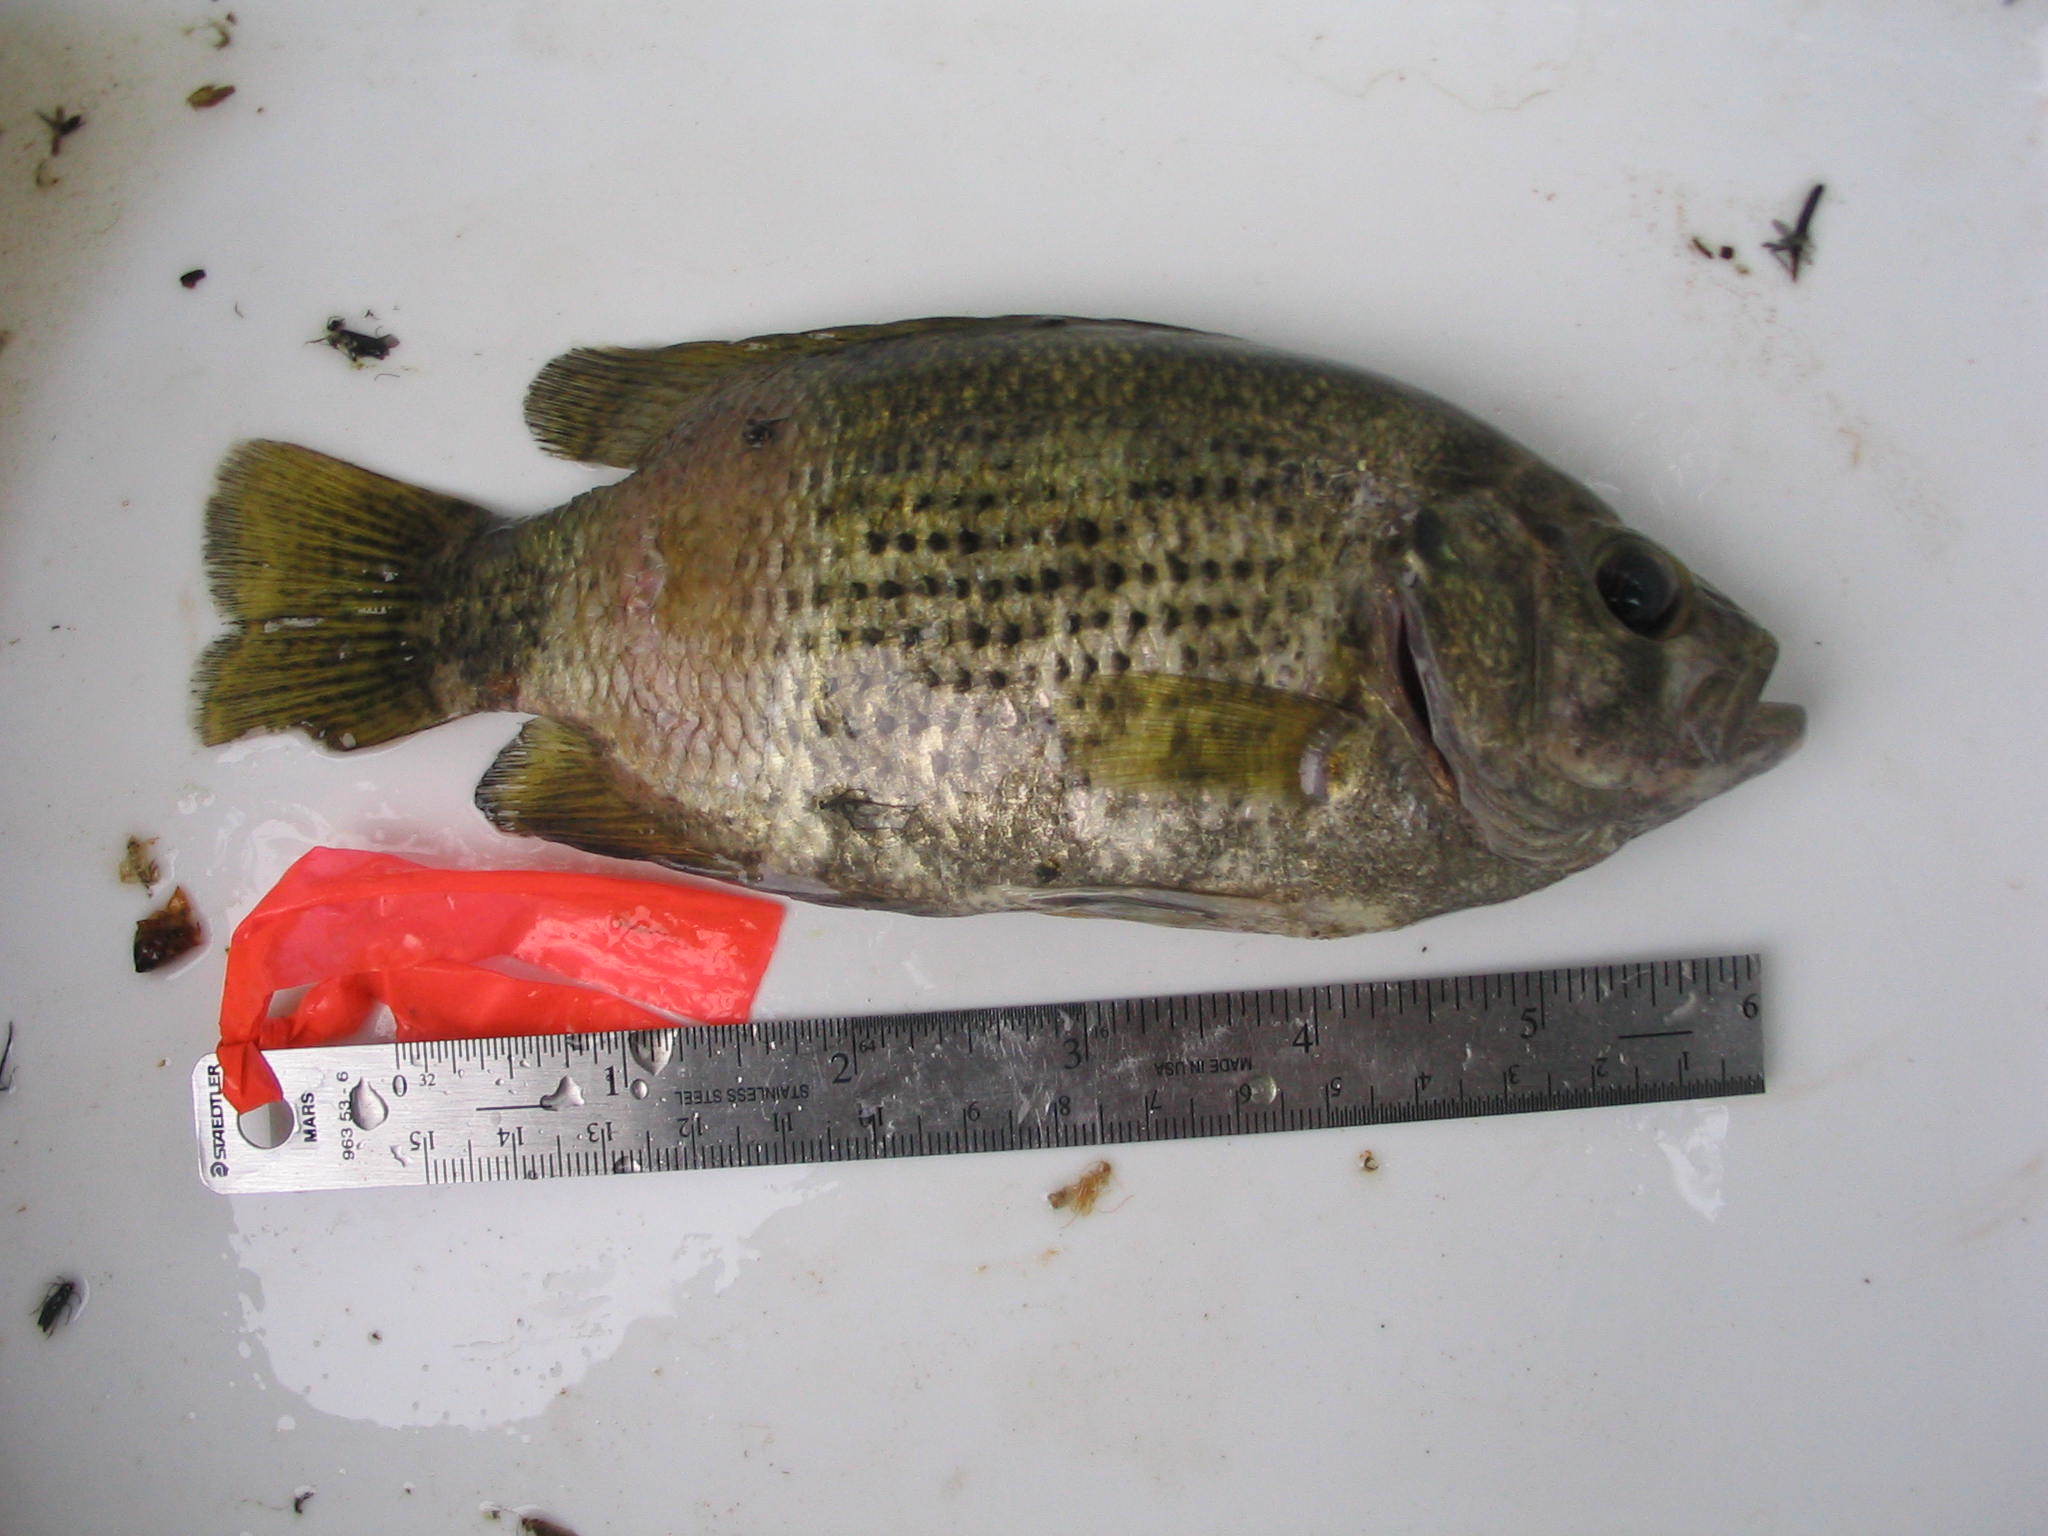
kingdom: Animalia
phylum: Chordata
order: Perciformes
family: Centrarchidae
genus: Ambloplites
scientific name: Ambloplites rupestris
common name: Rock bass
